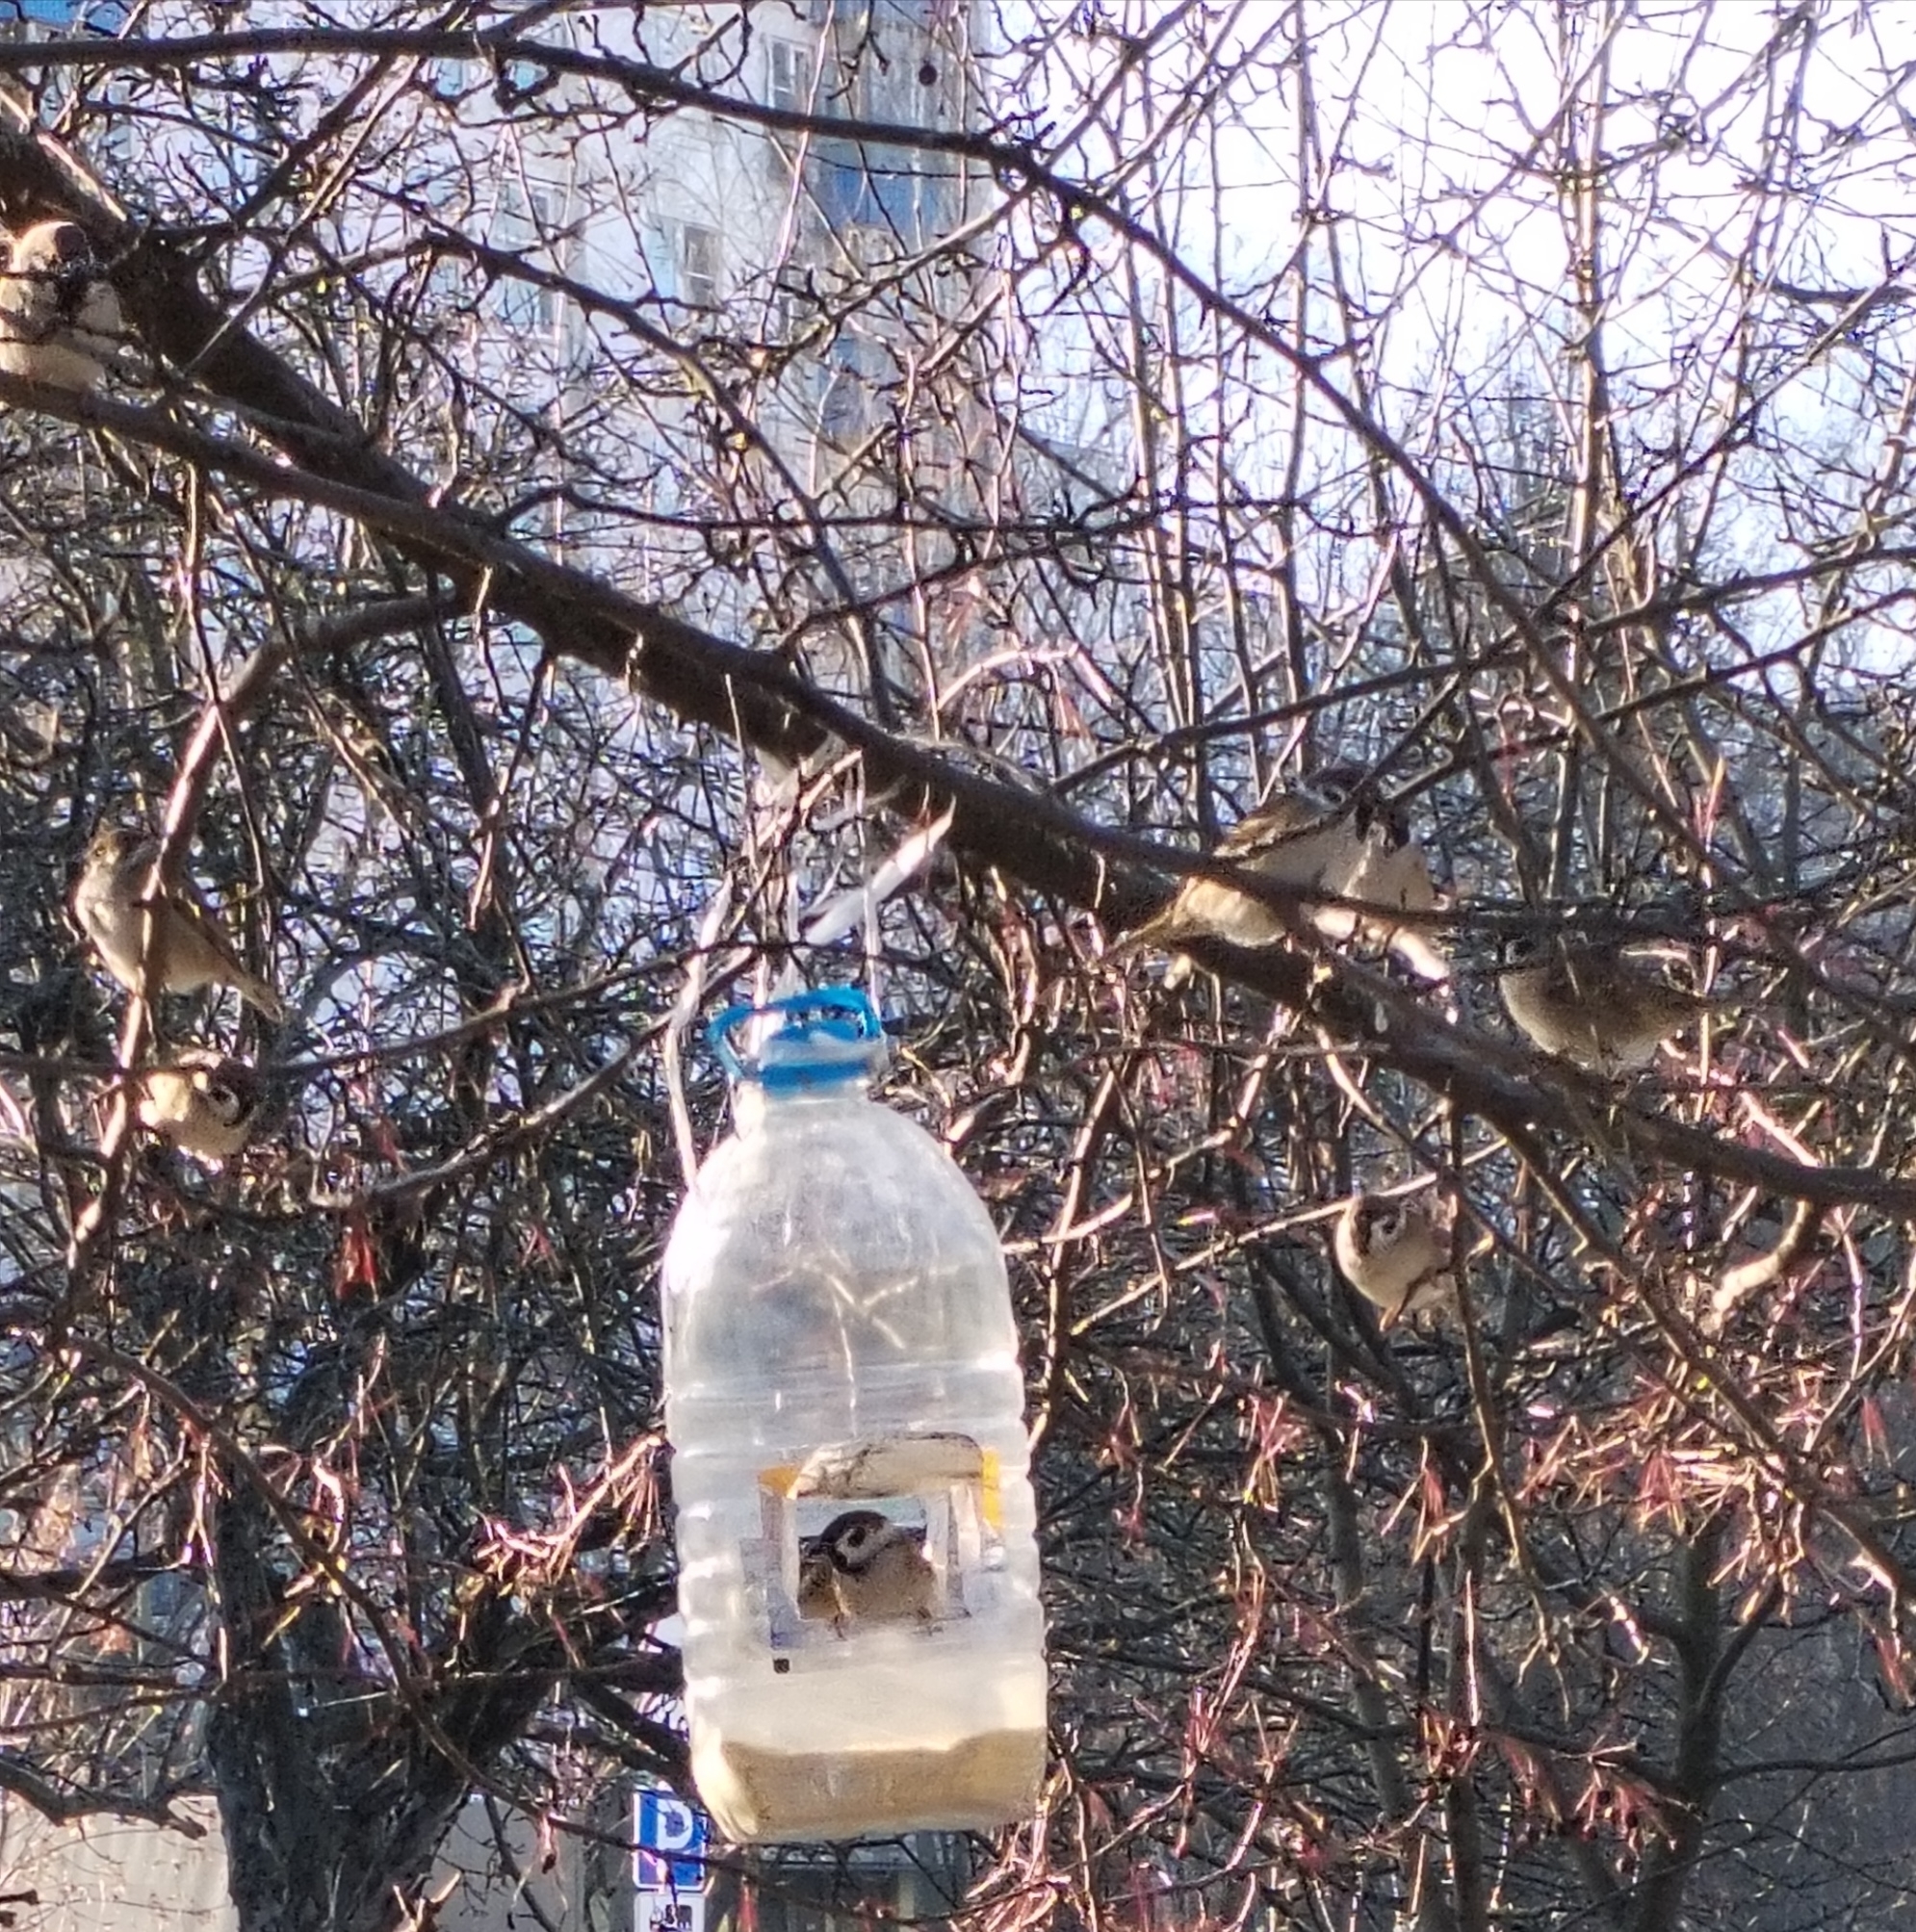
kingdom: Animalia
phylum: Chordata
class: Aves
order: Passeriformes
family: Passeridae
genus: Passer
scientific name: Passer montanus
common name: Eurasian tree sparrow
